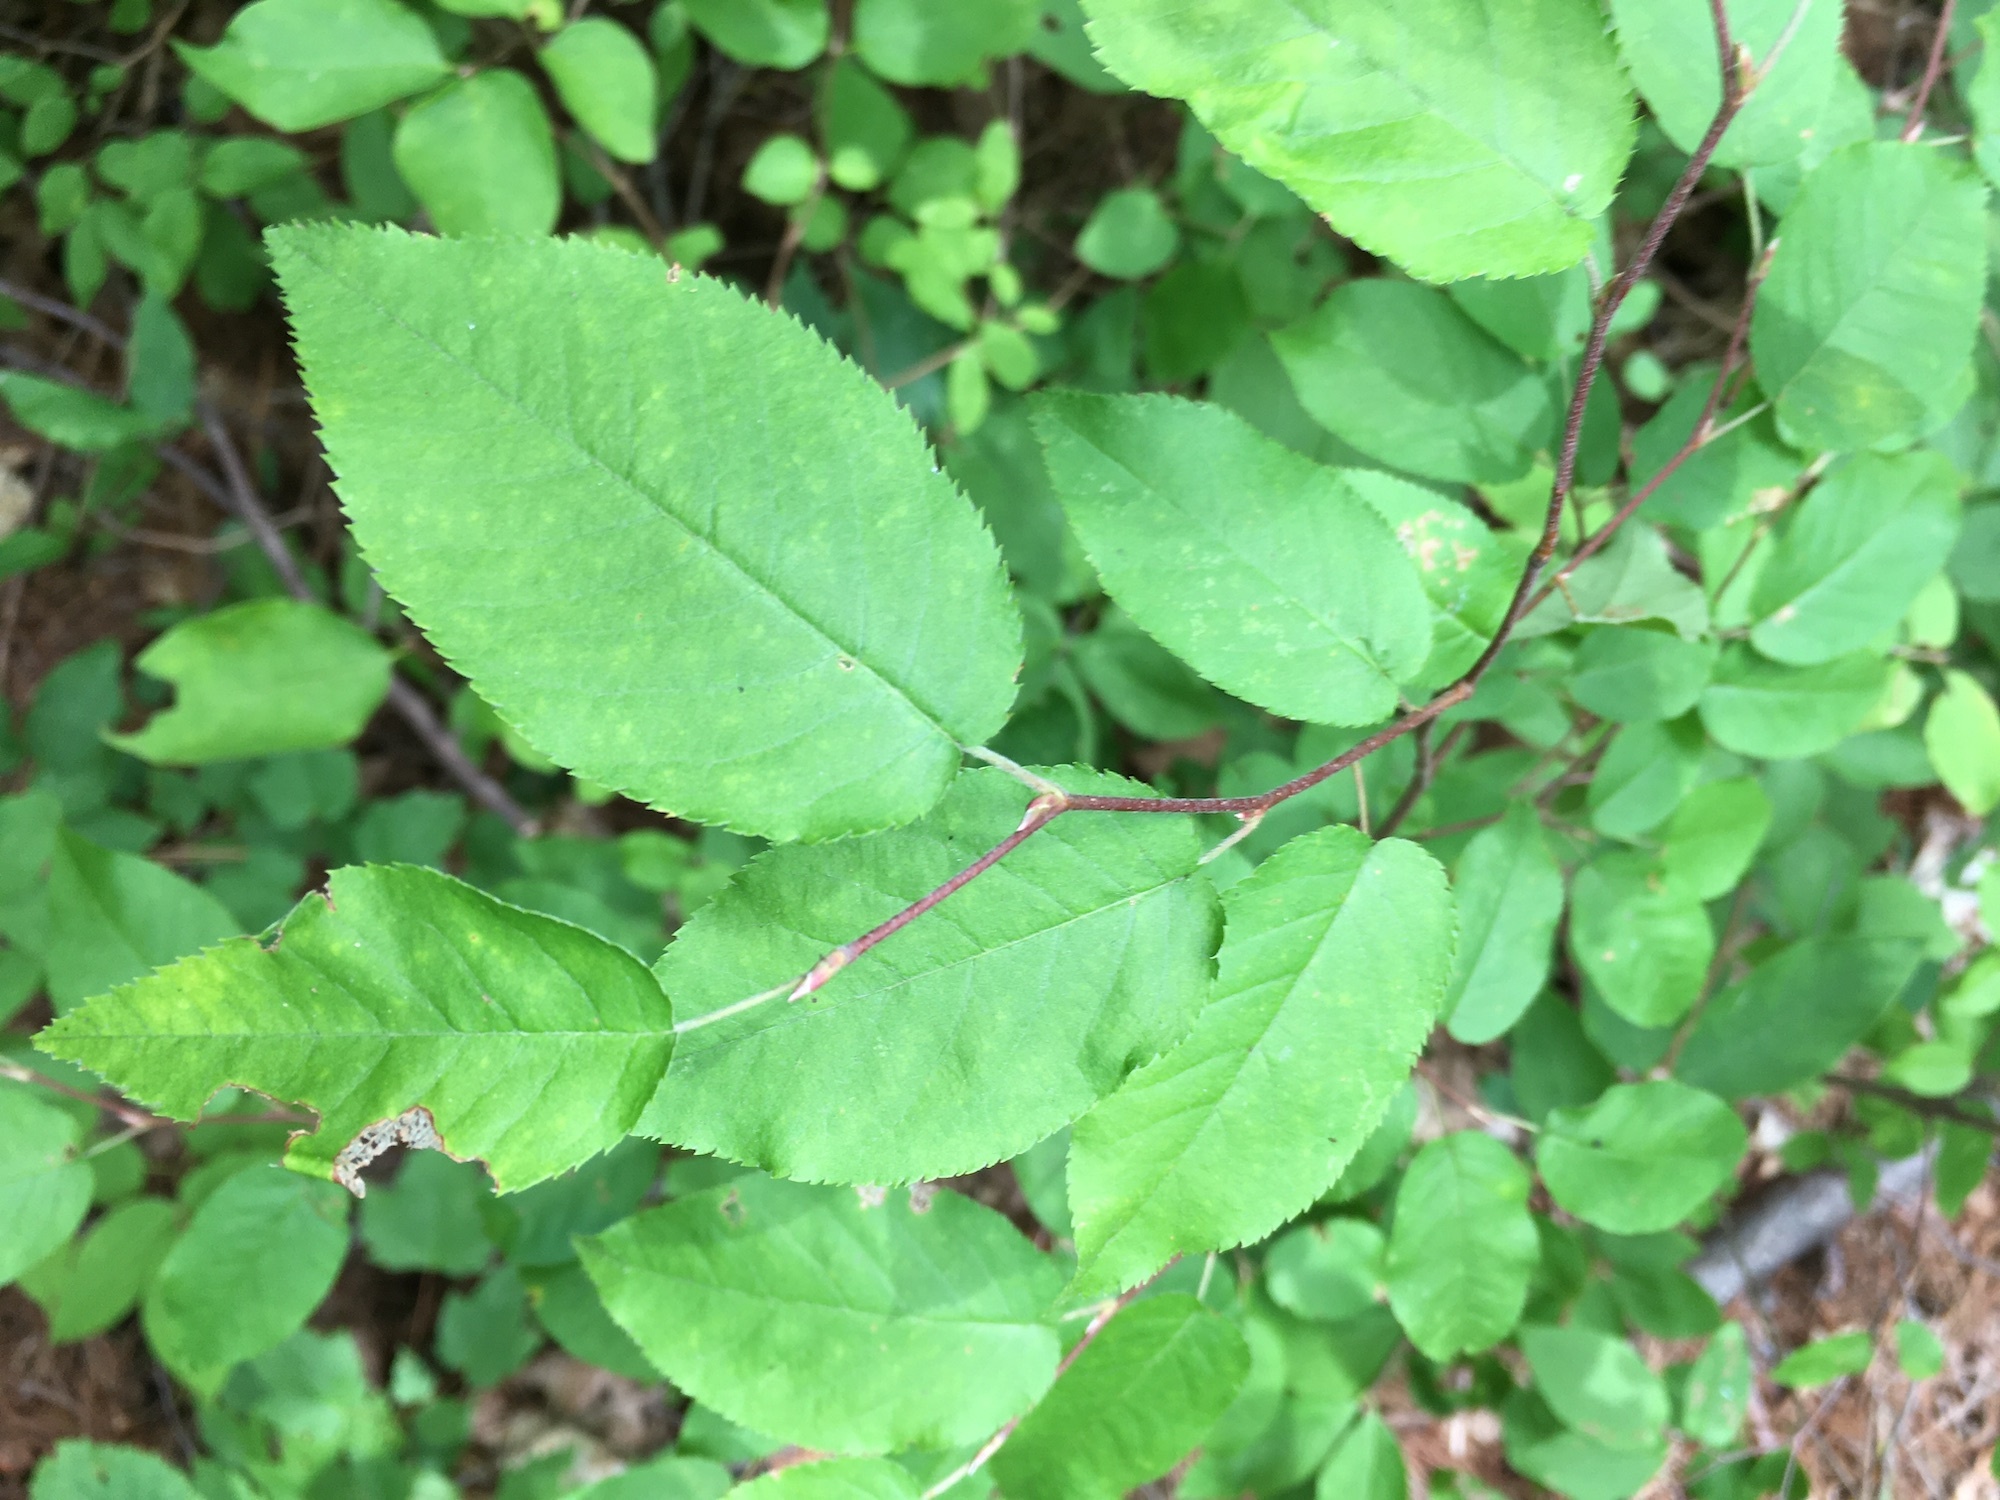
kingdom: Plantae
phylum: Tracheophyta
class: Magnoliopsida
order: Rosales
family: Rosaceae
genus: Amelanchier
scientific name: Amelanchier arborea
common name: Downy serviceberry
